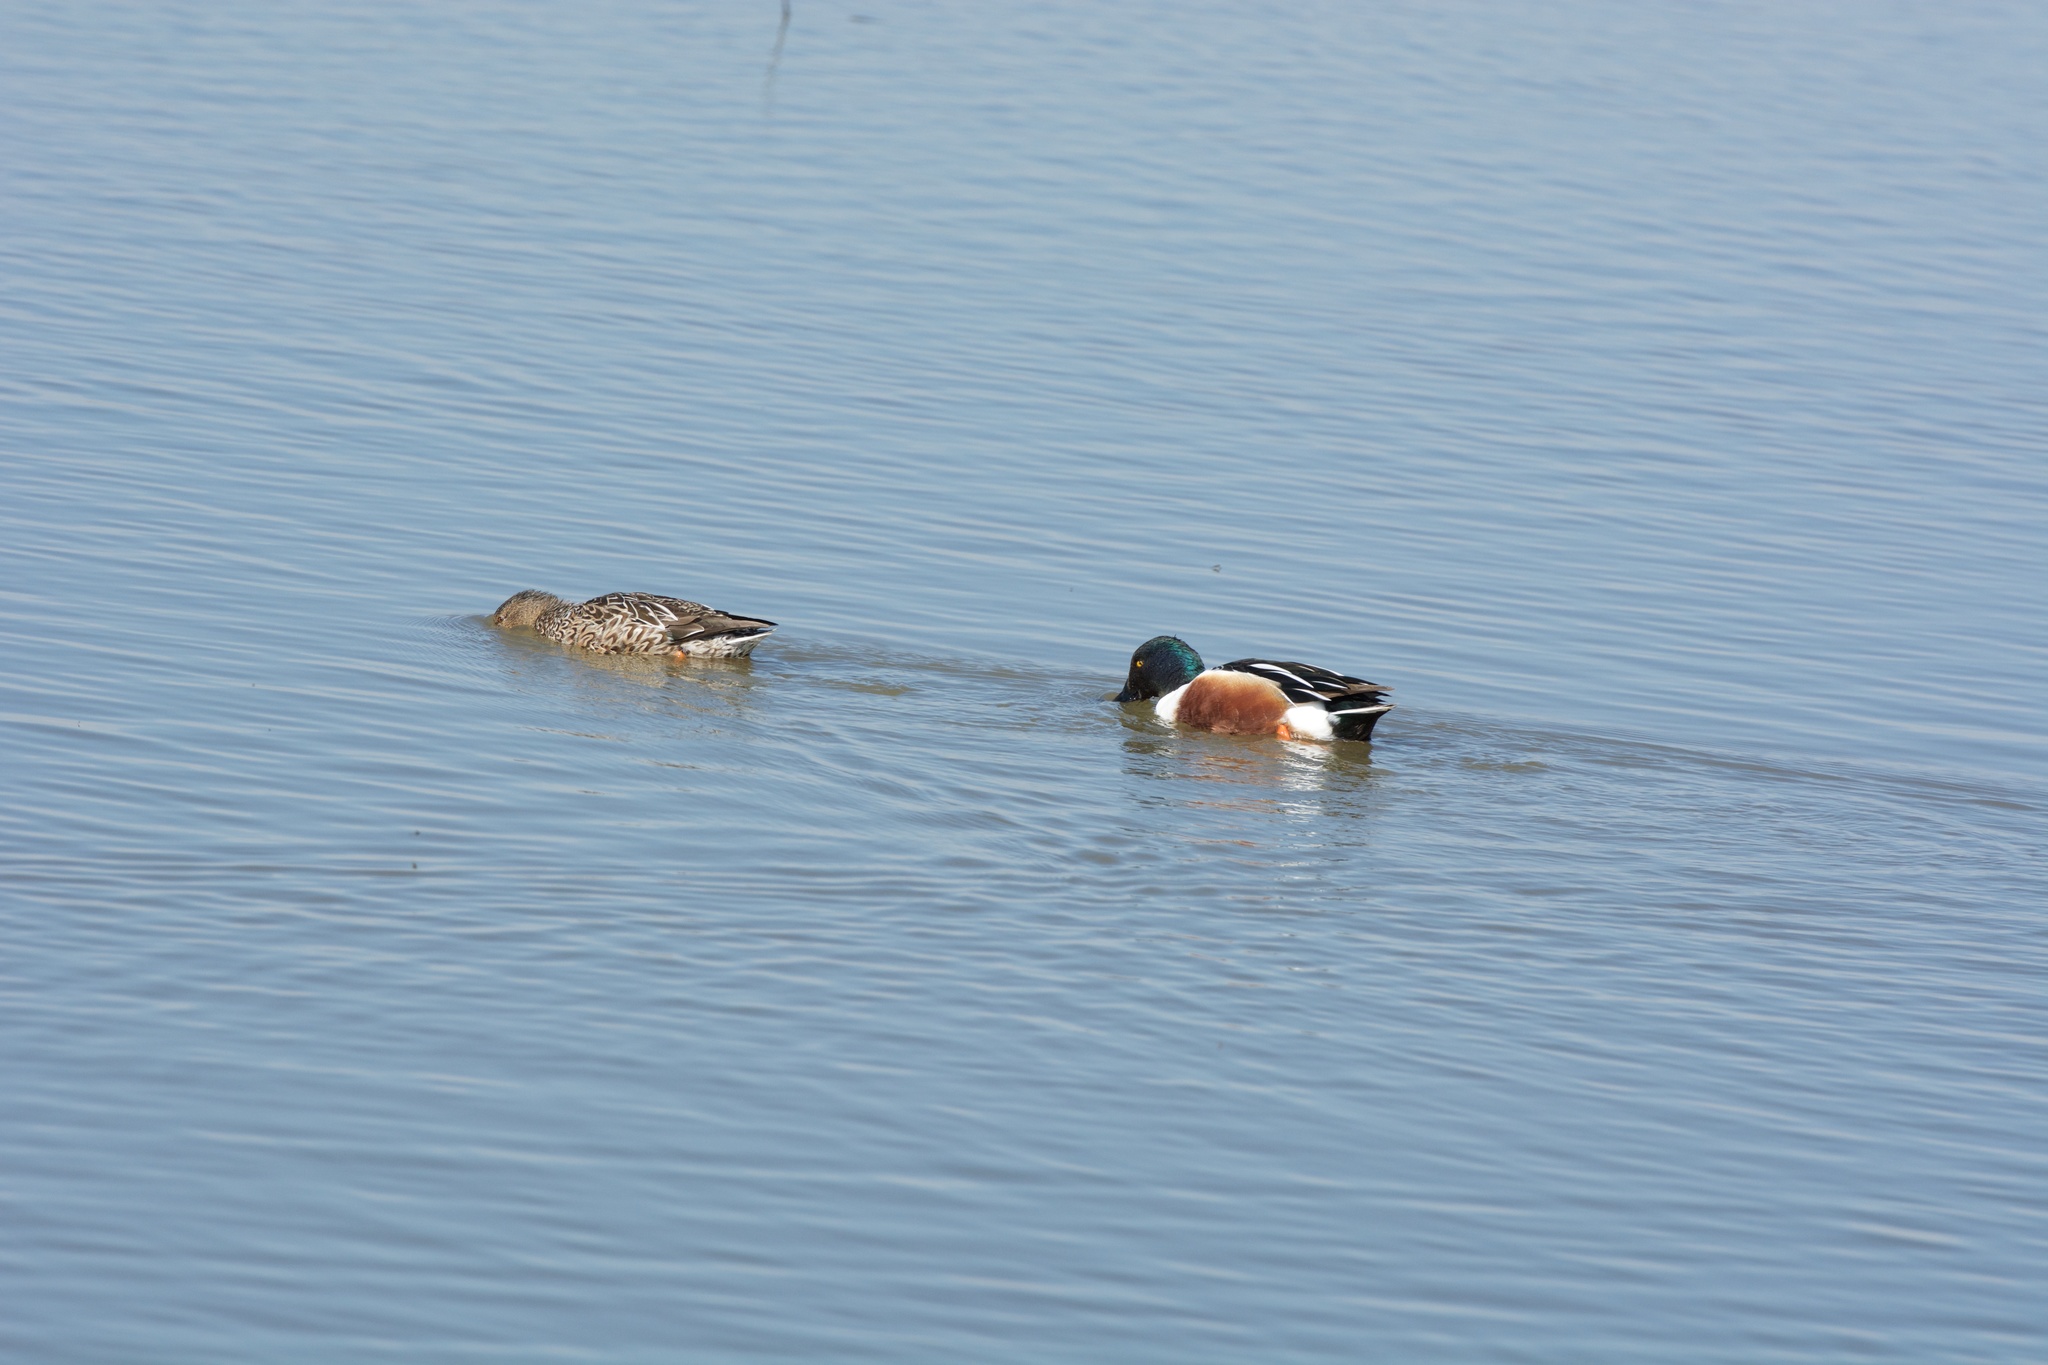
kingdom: Animalia
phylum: Chordata
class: Aves
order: Anseriformes
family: Anatidae
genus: Spatula
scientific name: Spatula clypeata
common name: Northern shoveler
